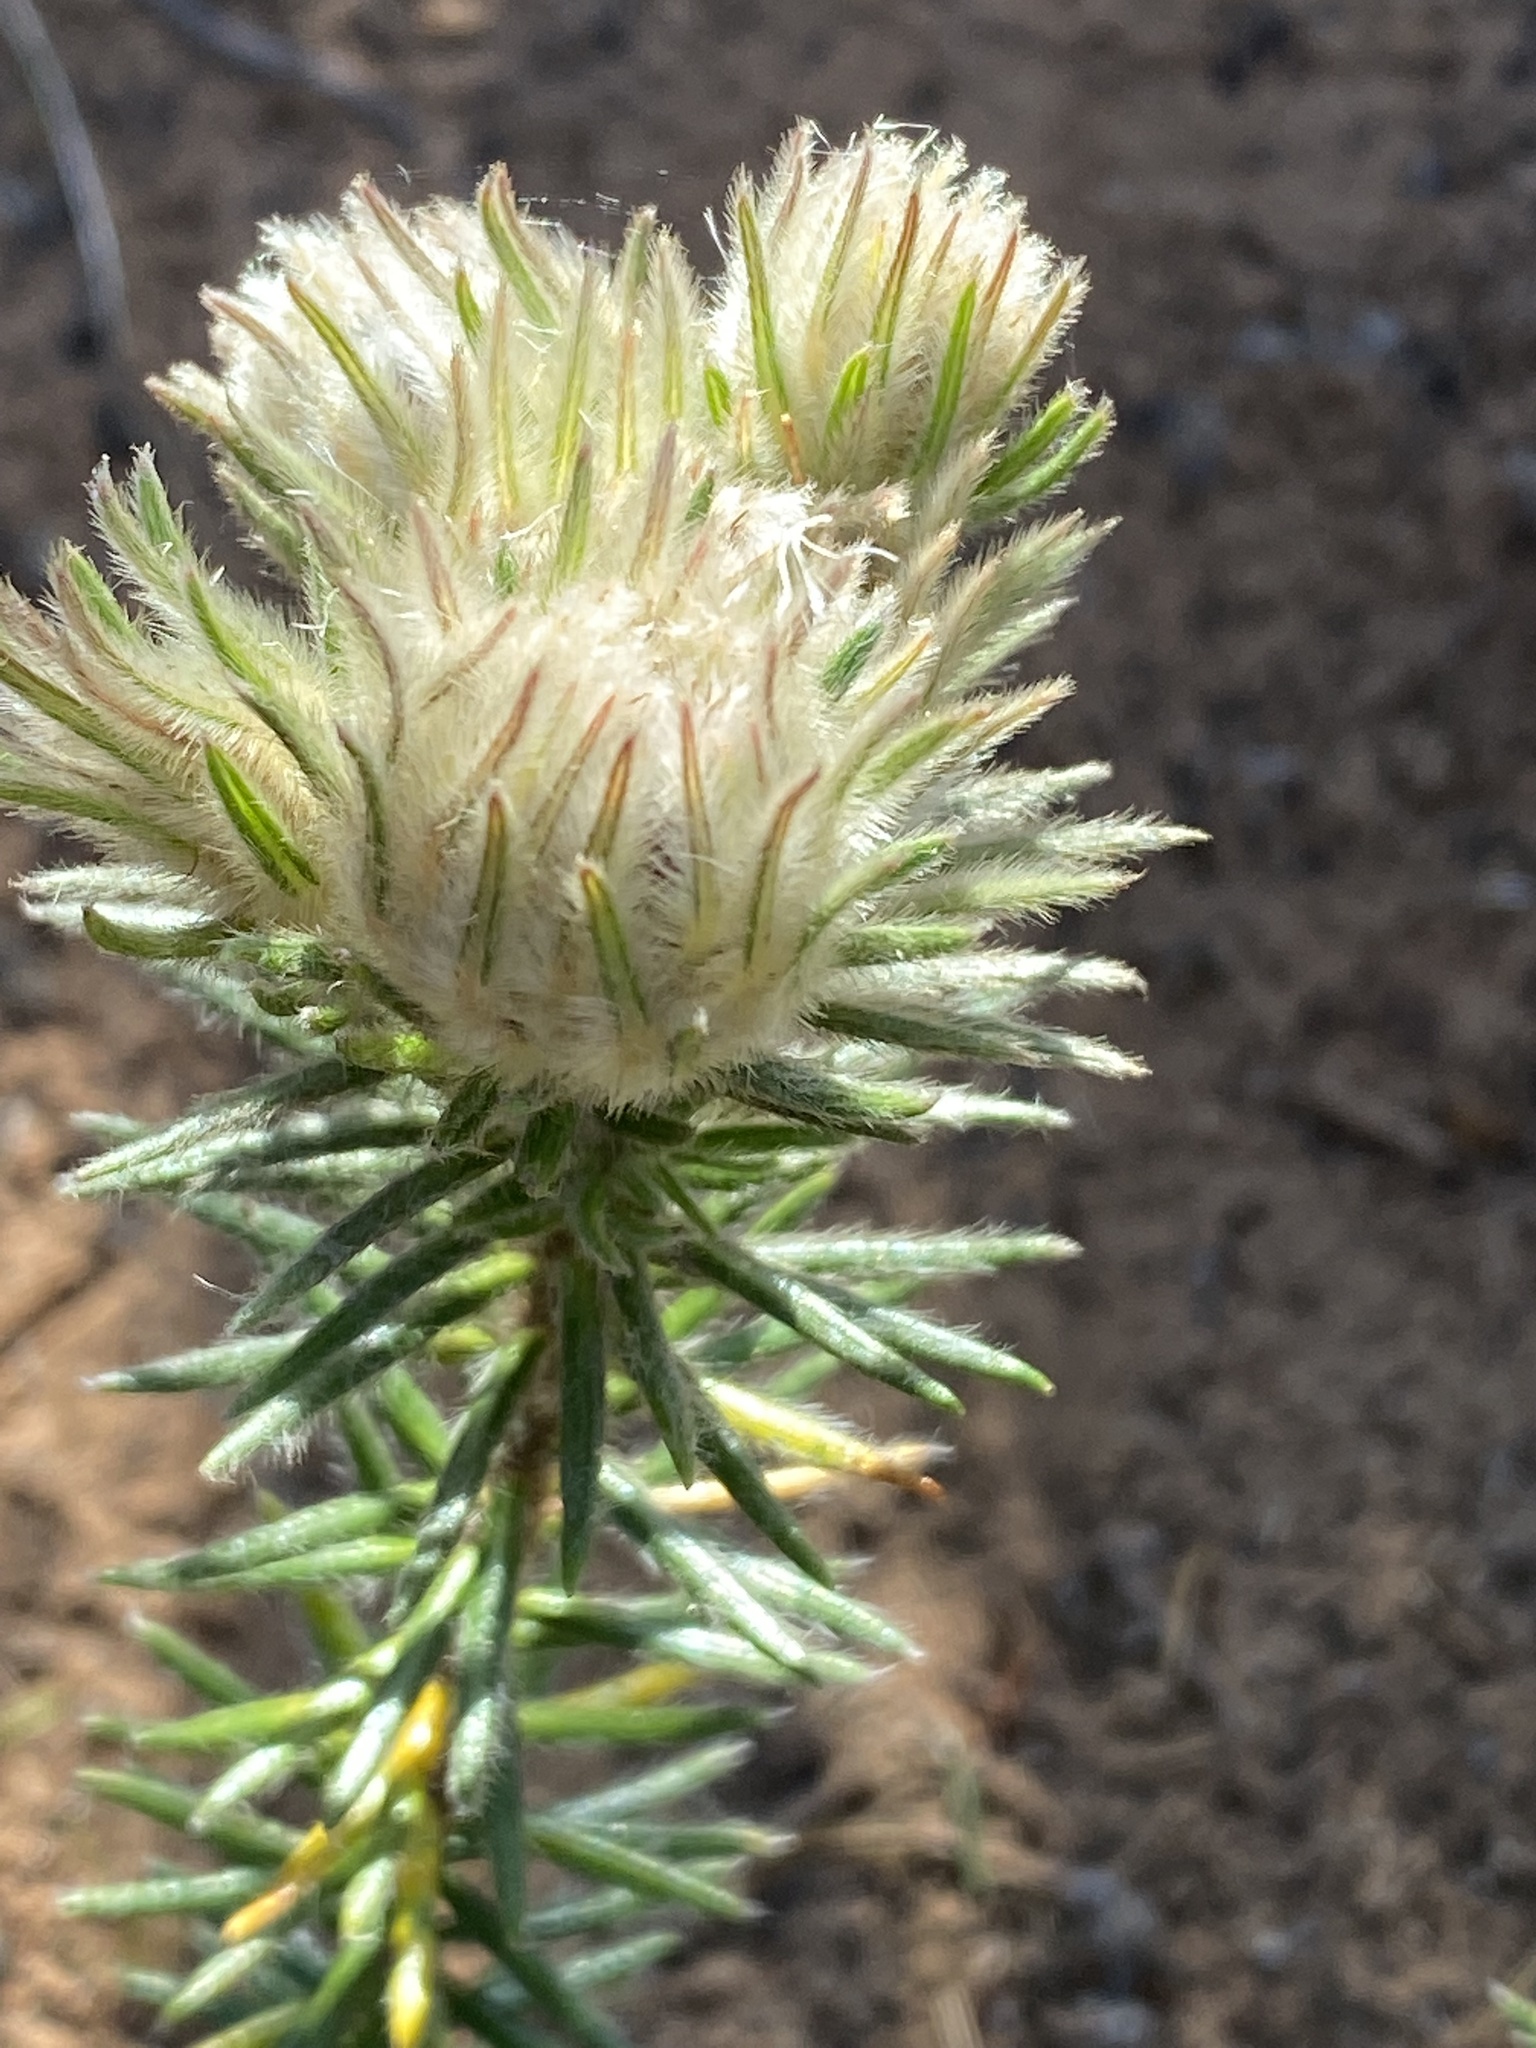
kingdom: Plantae
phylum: Tracheophyta
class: Magnoliopsida
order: Rosales
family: Rhamnaceae
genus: Phylica
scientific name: Phylica pubescens
